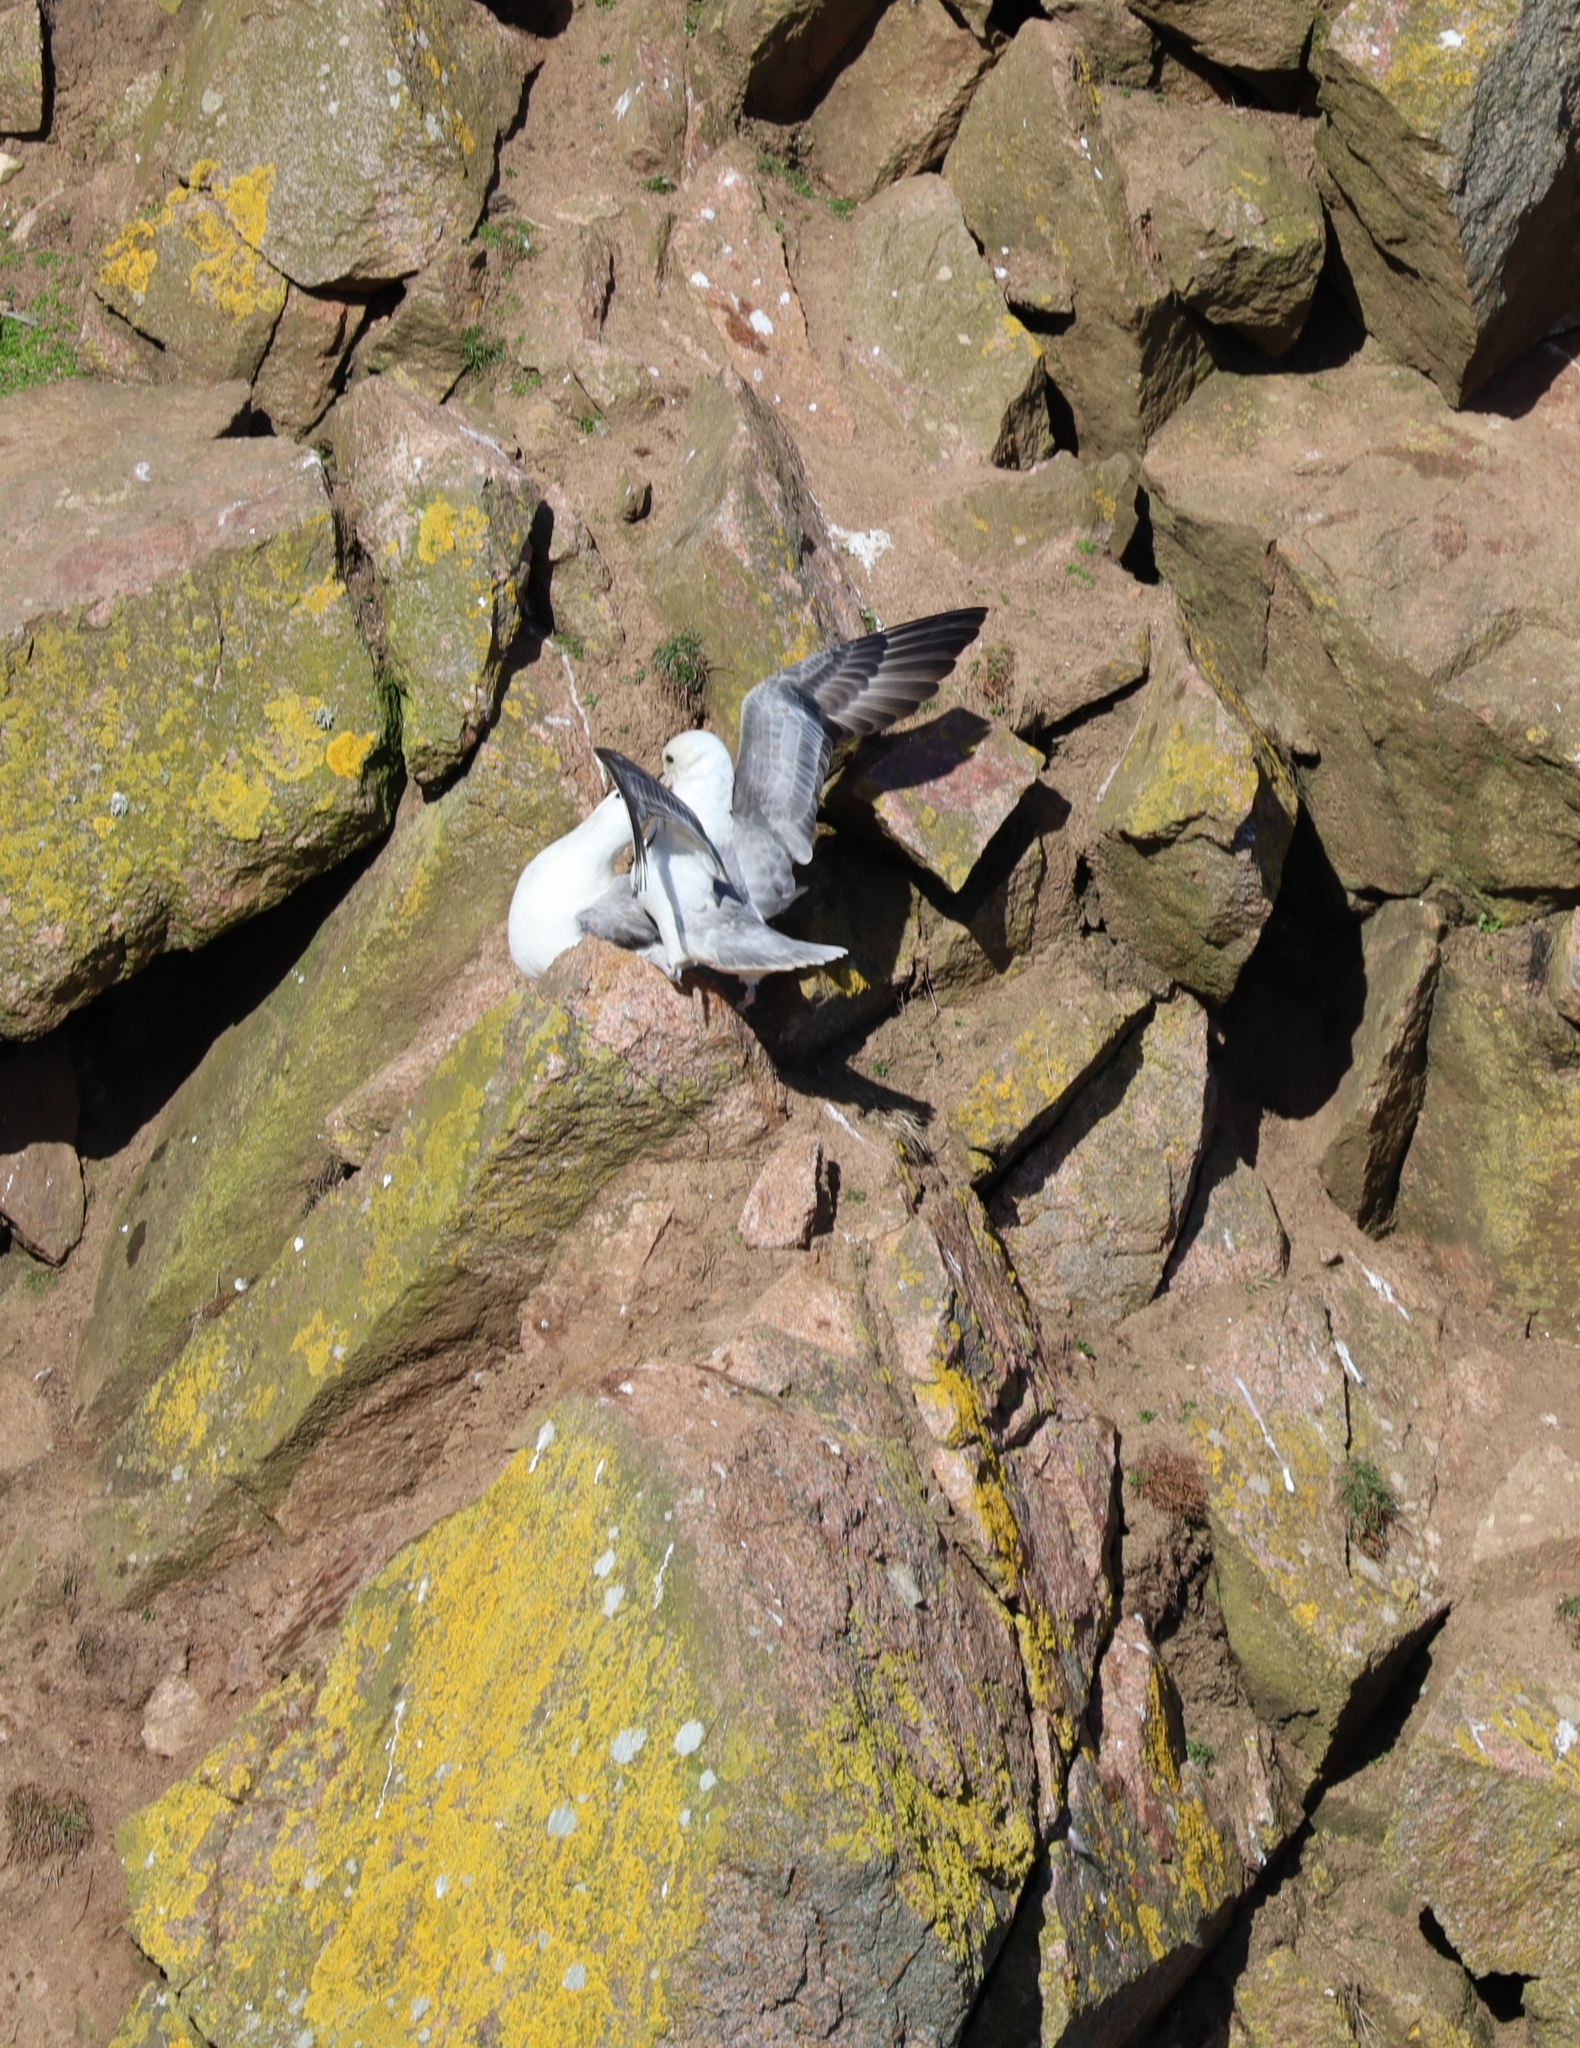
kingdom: Animalia
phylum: Chordata
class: Aves
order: Procellariiformes
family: Procellariidae
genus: Fulmarus
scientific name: Fulmarus glacialis
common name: Northern fulmar
